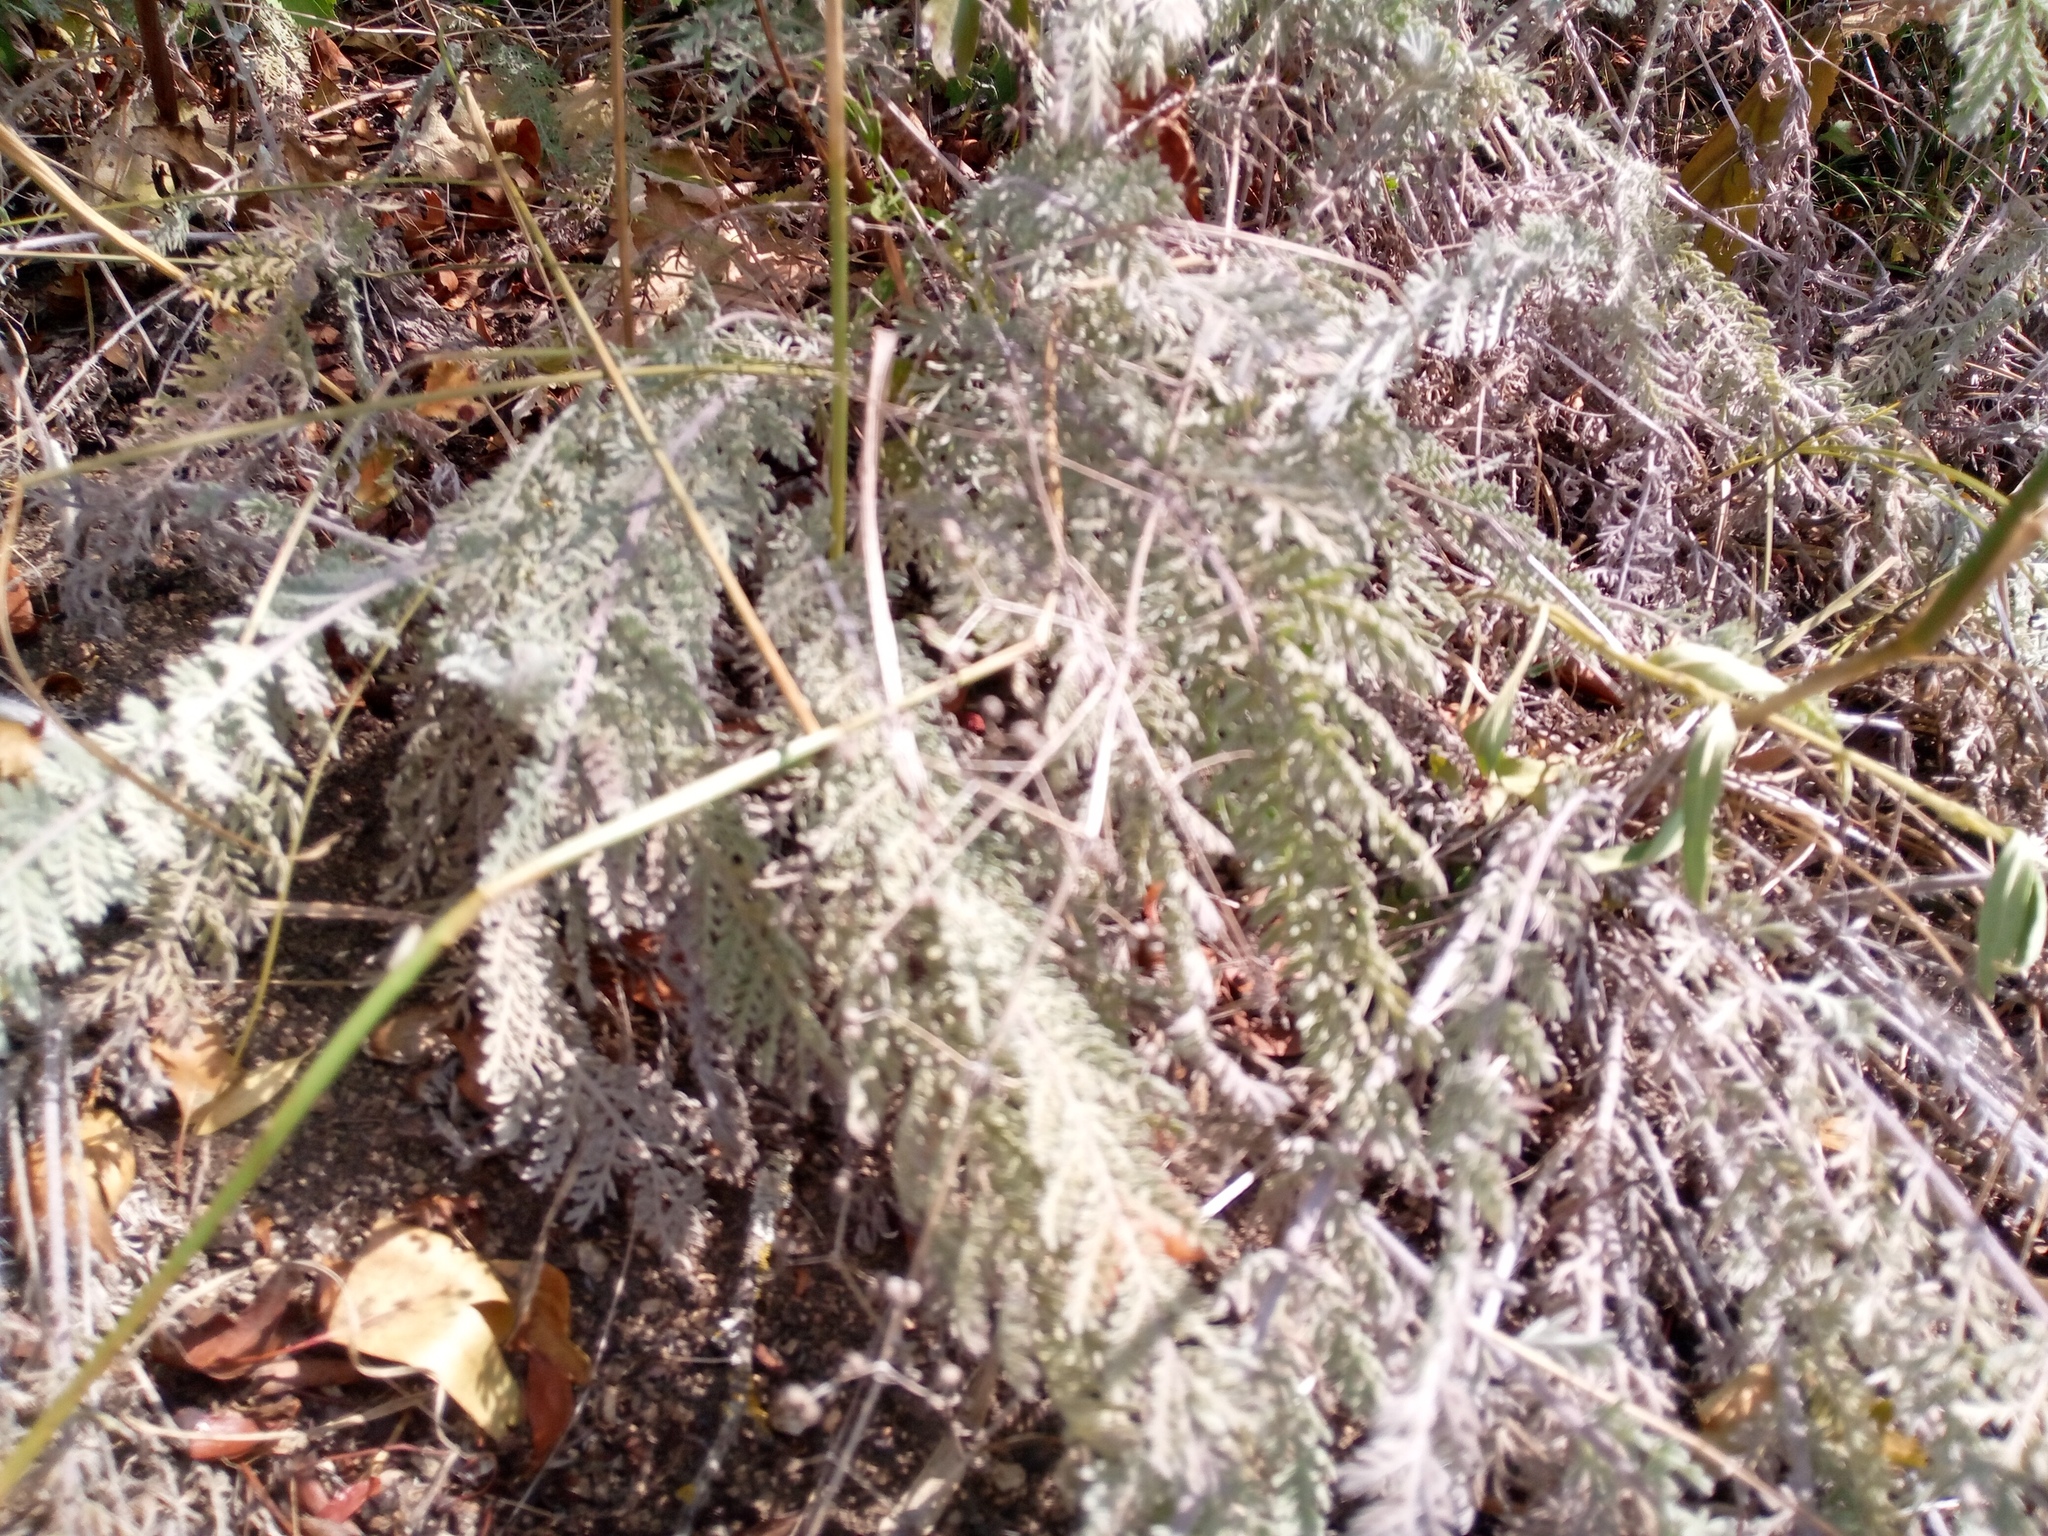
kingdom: Plantae
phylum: Tracheophyta
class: Magnoliopsida
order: Asterales
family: Asteraceae
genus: Tanacetum
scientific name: Tanacetum odessanum
